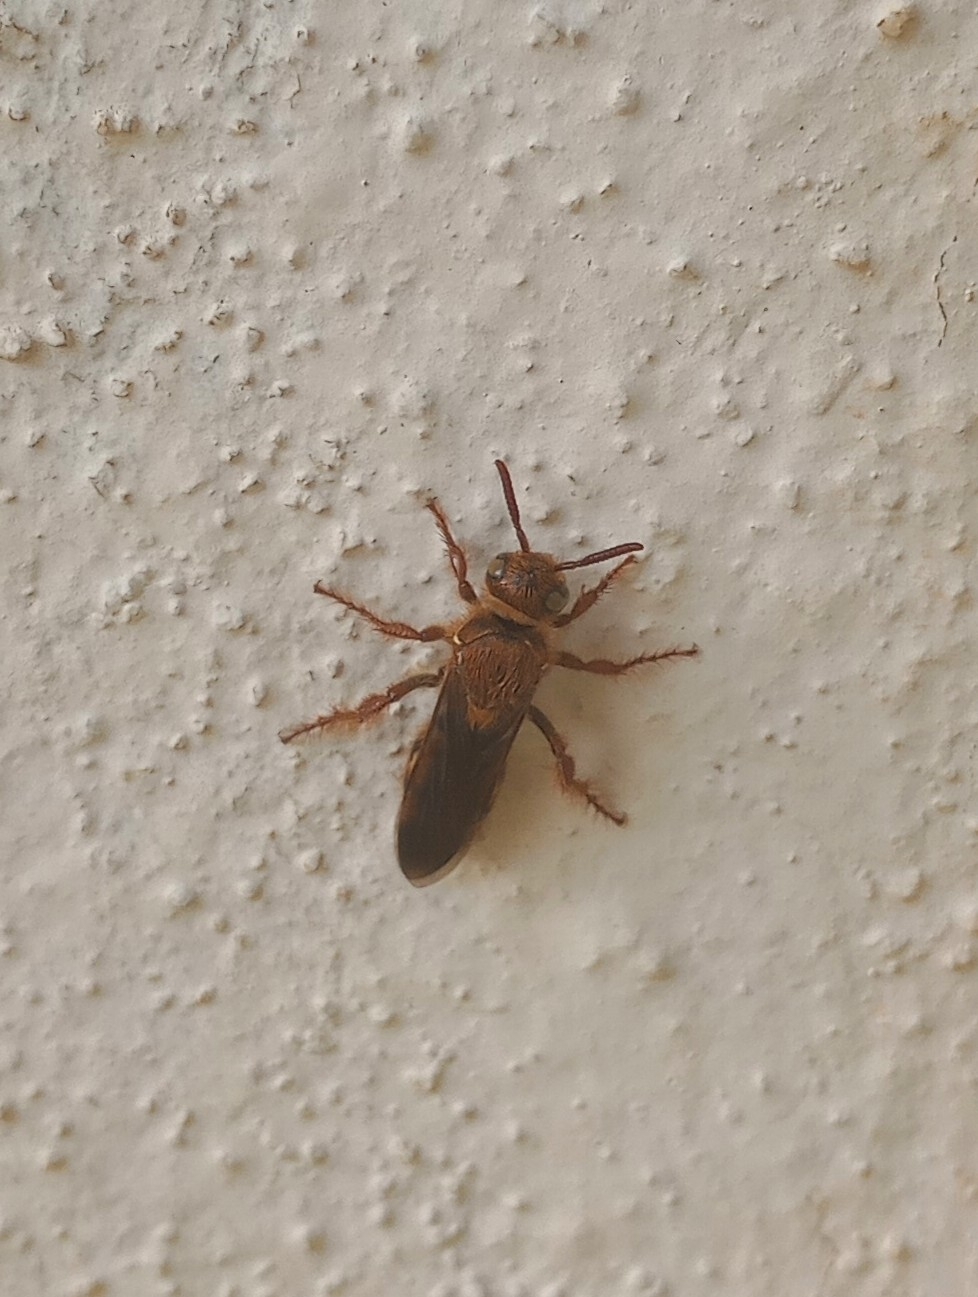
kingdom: Animalia
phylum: Arthropoda
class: Insecta
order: Hymenoptera
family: Scoliidae
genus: Phalerimeris
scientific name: Phalerimeris
